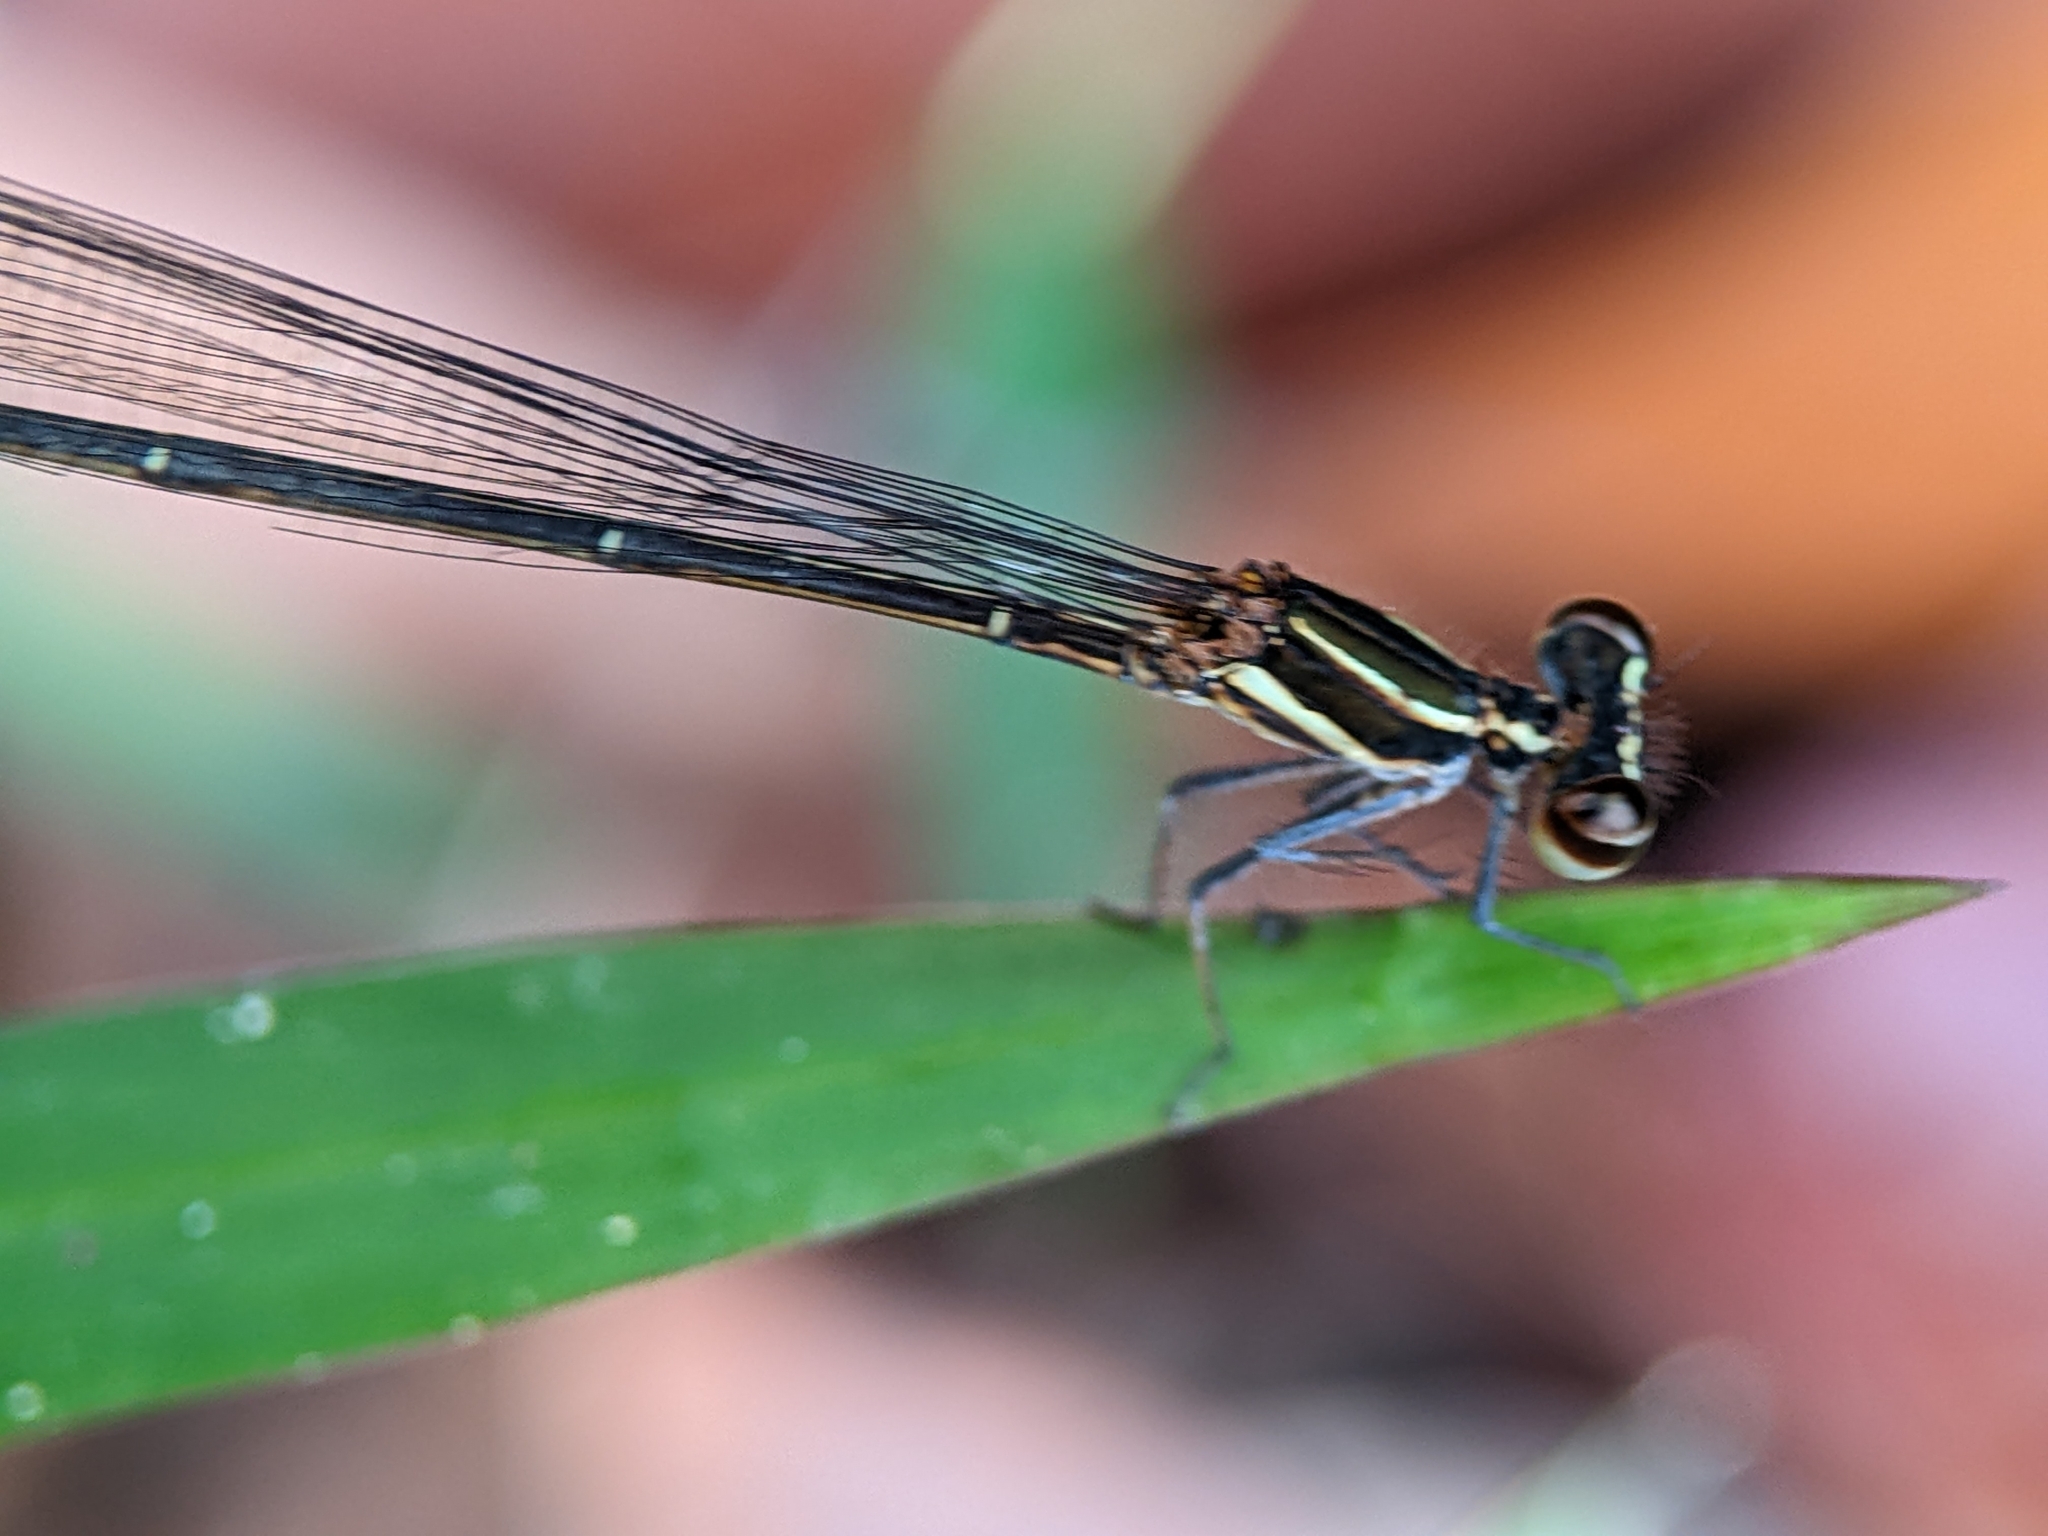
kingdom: Animalia
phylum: Arthropoda
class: Insecta
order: Odonata
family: Platycnemididae
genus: Prodasineura
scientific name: Prodasineura verticalis
